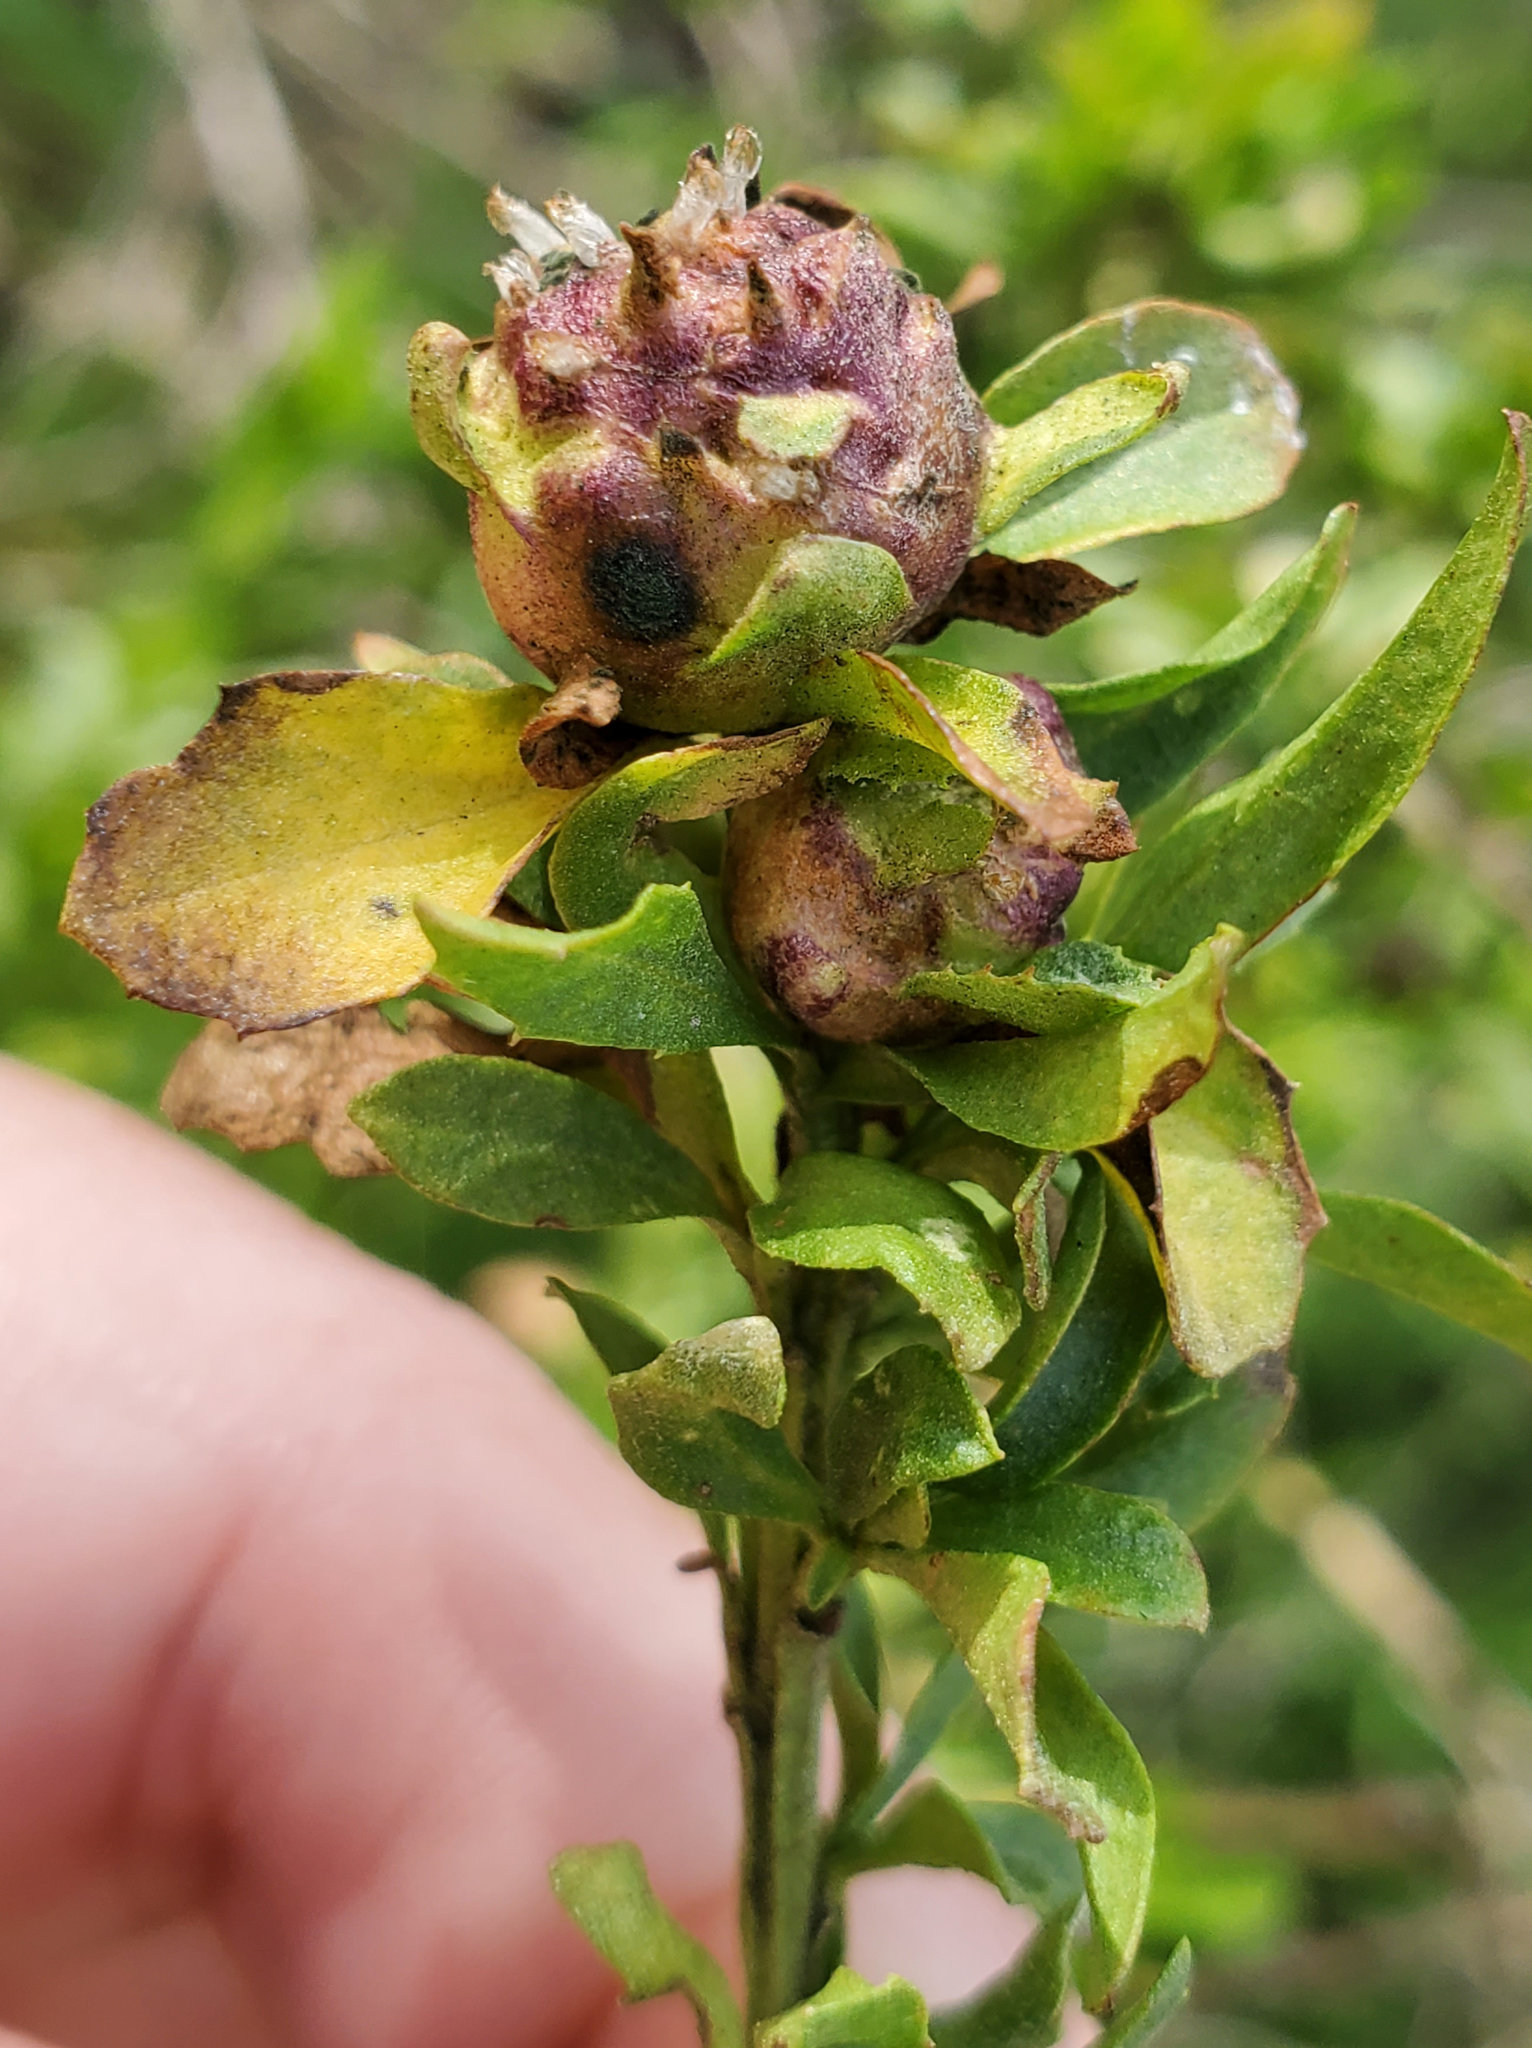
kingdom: Animalia
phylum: Arthropoda
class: Insecta
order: Diptera
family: Cecidomyiidae
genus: Rhopalomyia
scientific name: Rhopalomyia californica
